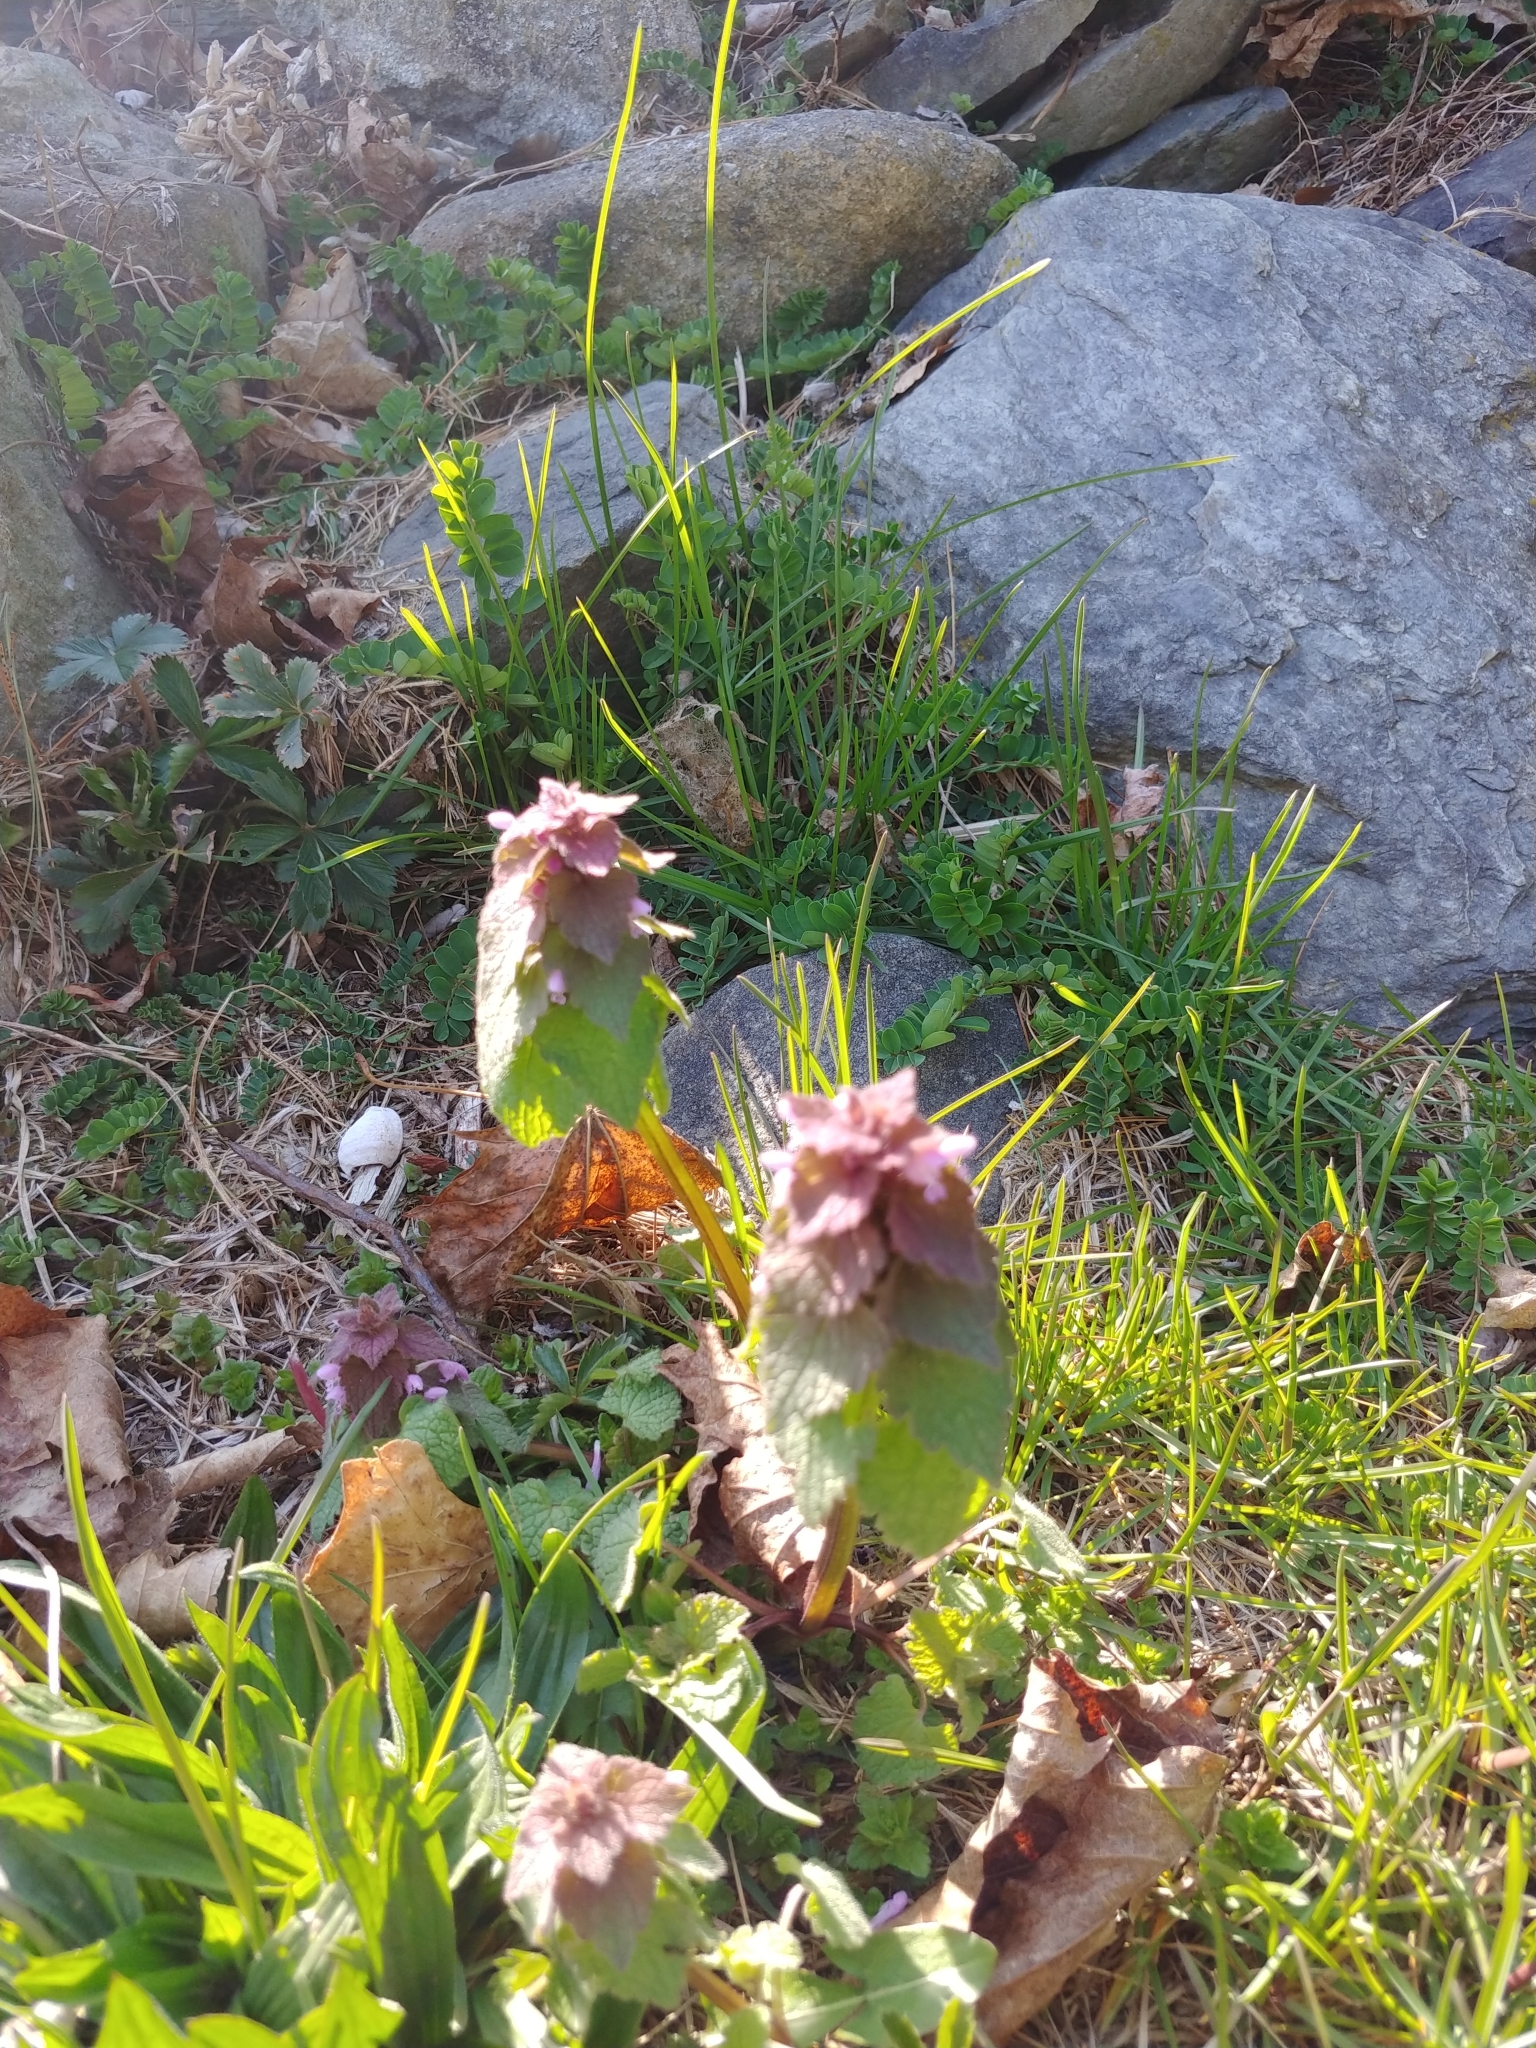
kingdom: Plantae
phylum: Tracheophyta
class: Magnoliopsida
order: Lamiales
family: Lamiaceae
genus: Lamium
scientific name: Lamium purpureum
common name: Red dead-nettle
